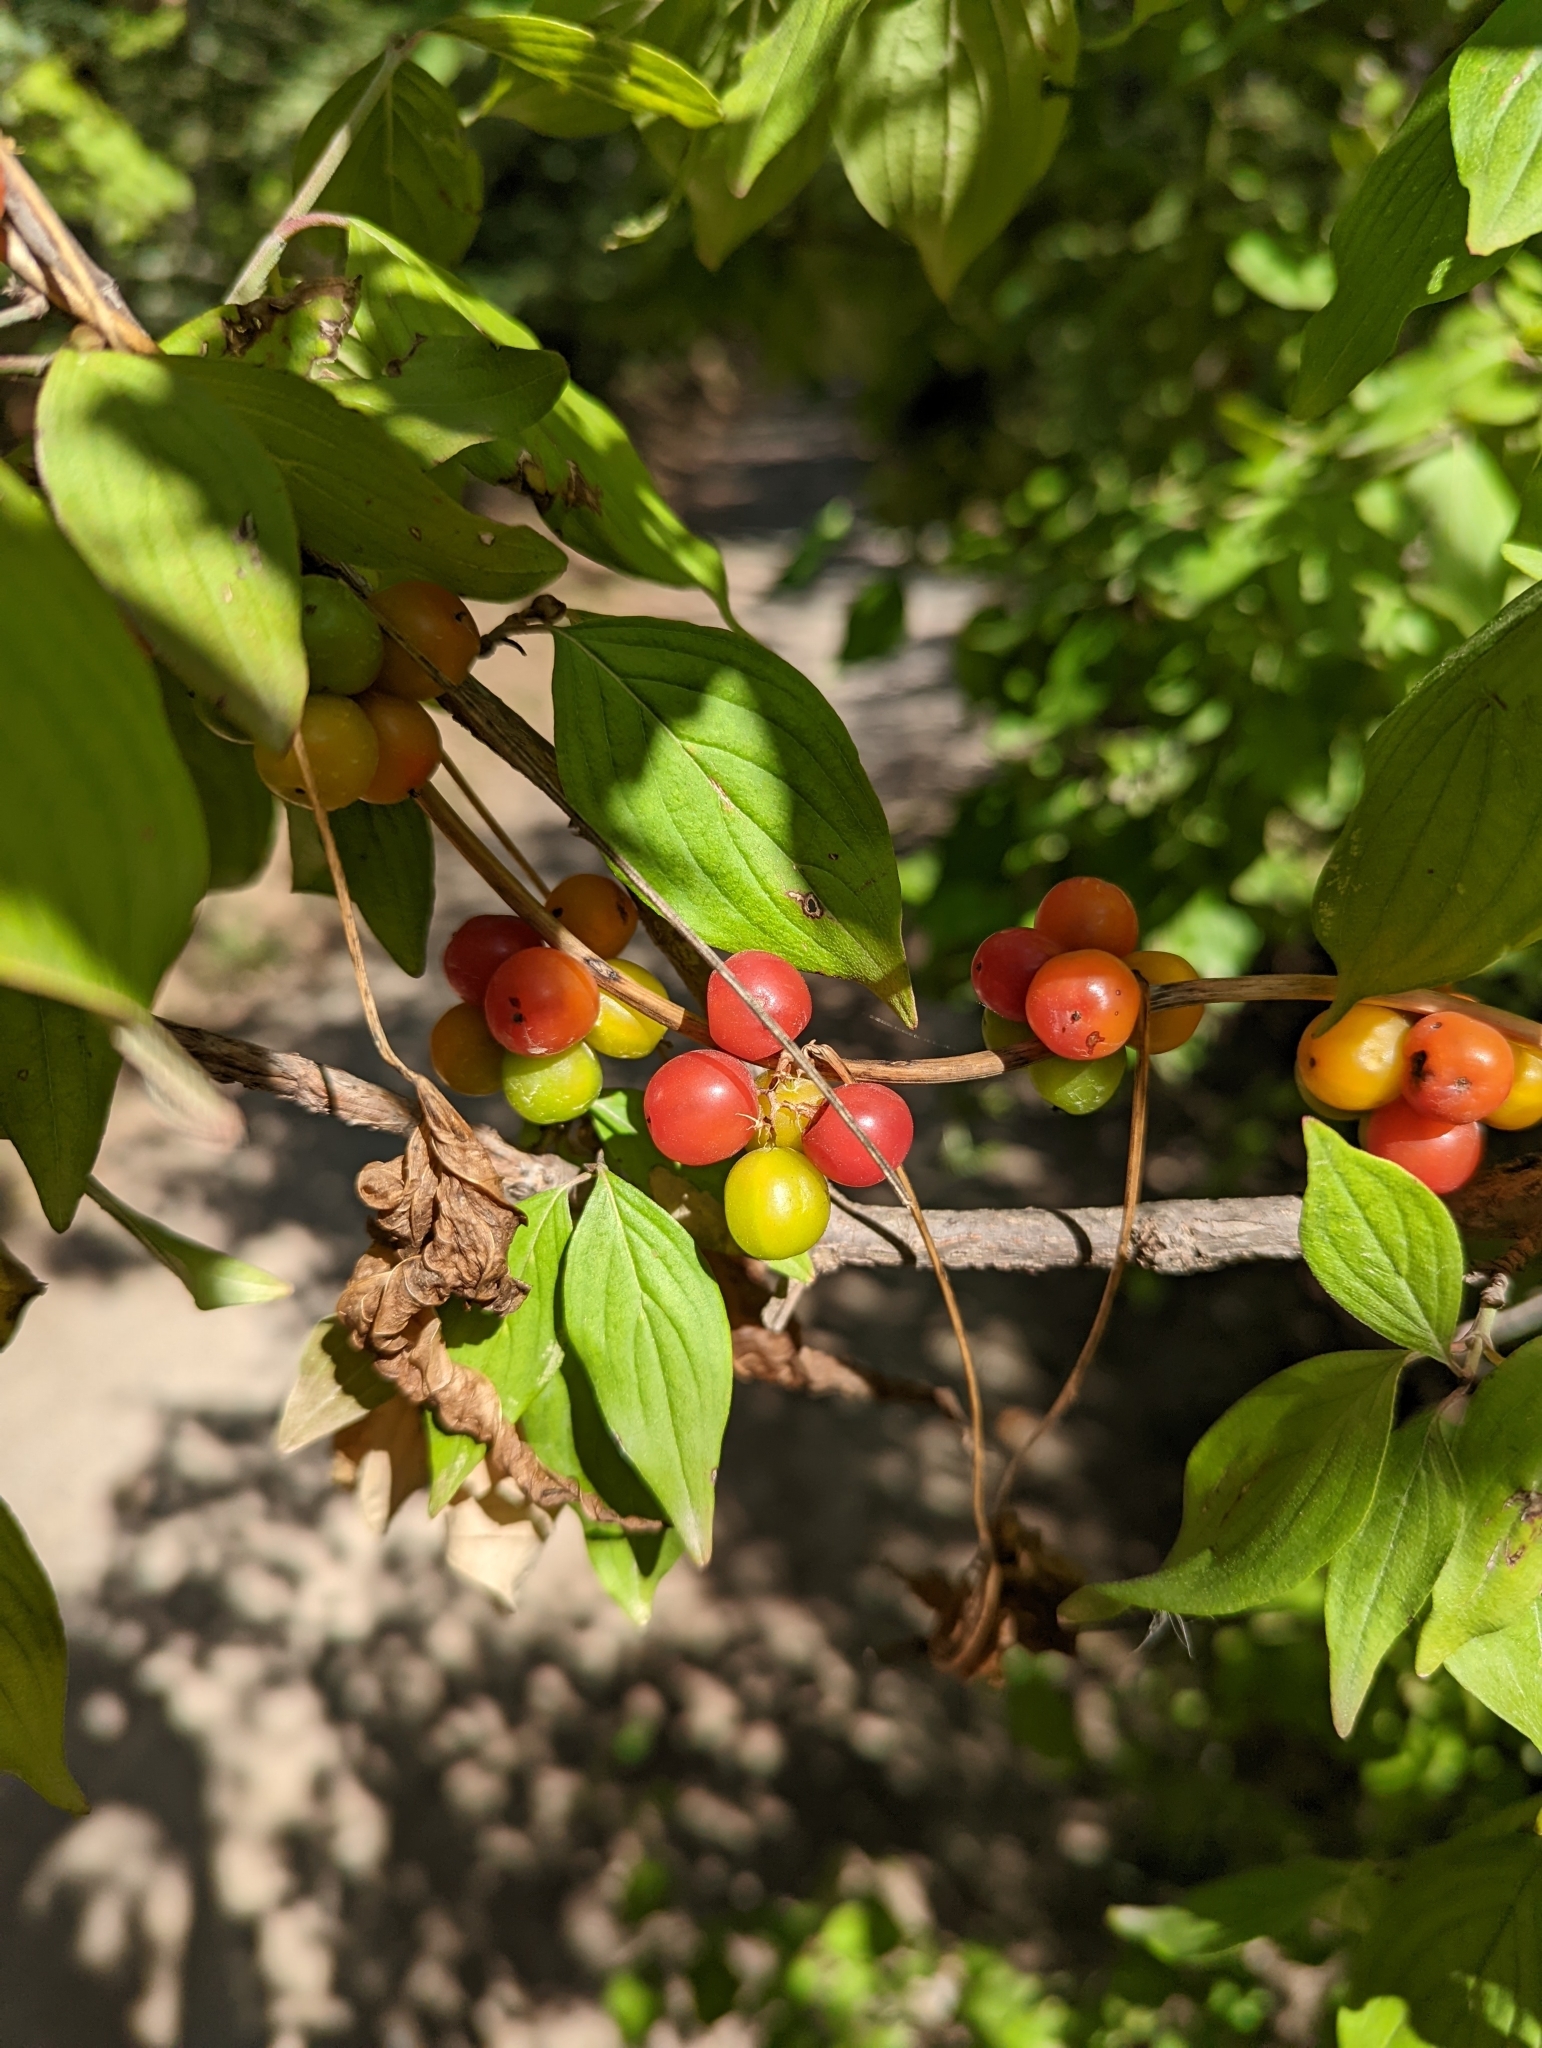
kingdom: Plantae
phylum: Tracheophyta
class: Liliopsida
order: Dioscoreales
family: Dioscoreaceae
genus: Dioscorea
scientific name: Dioscorea communis
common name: Black-bindweed
